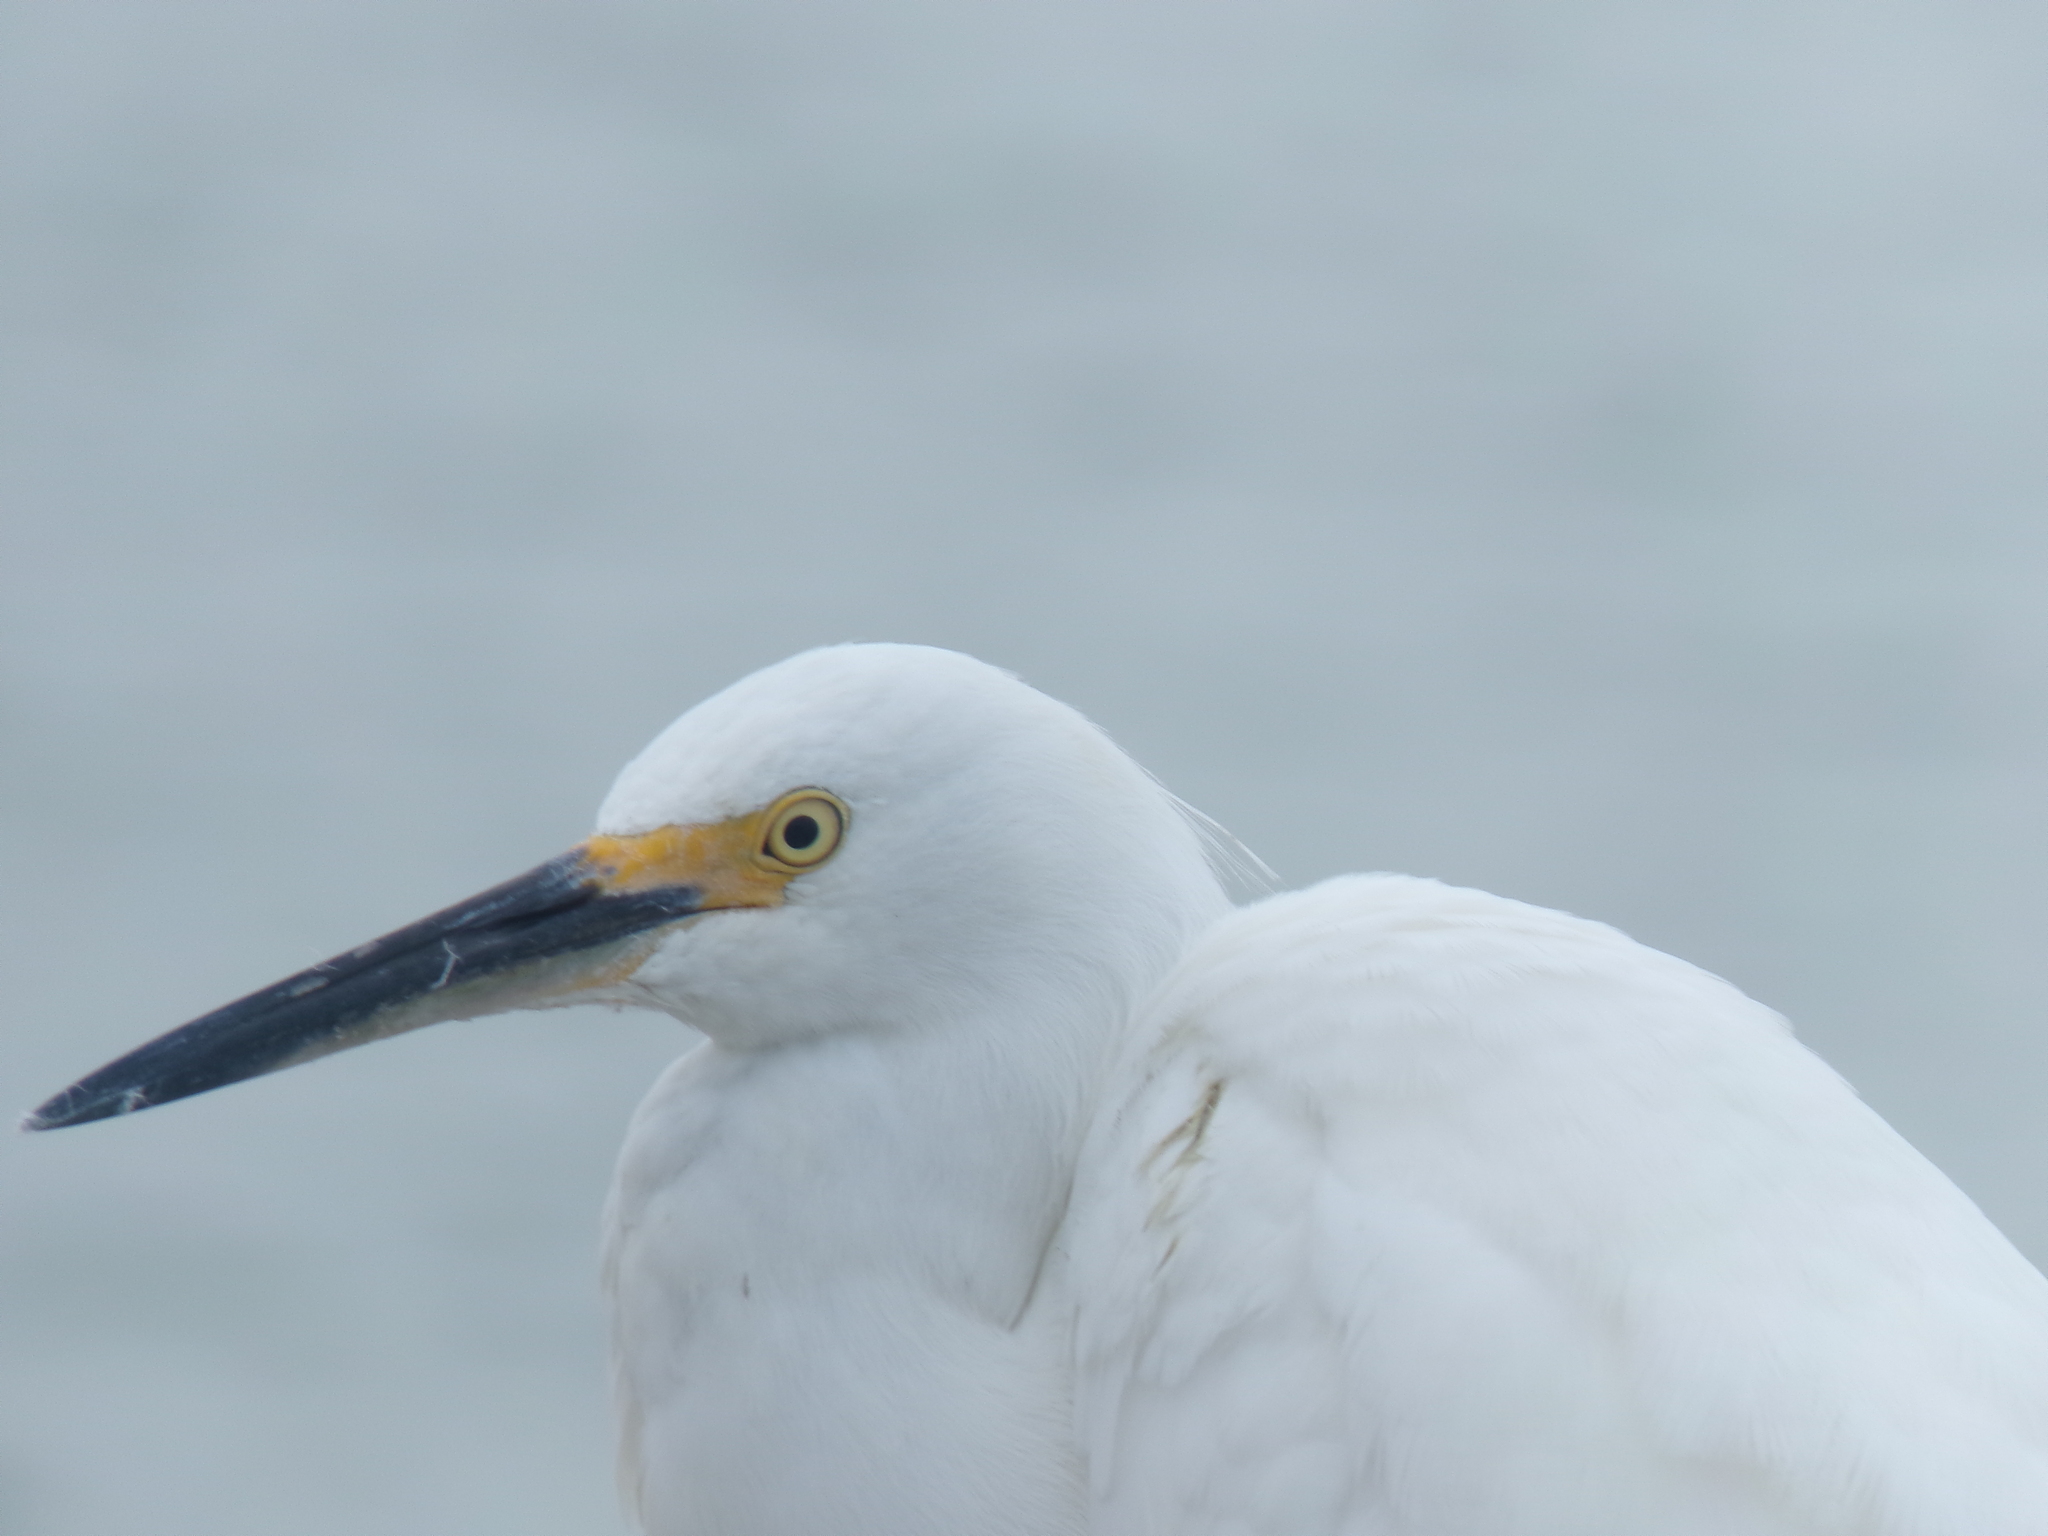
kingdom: Animalia
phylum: Chordata
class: Aves
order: Pelecaniformes
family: Ardeidae
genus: Egretta
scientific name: Egretta thula
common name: Snowy egret
